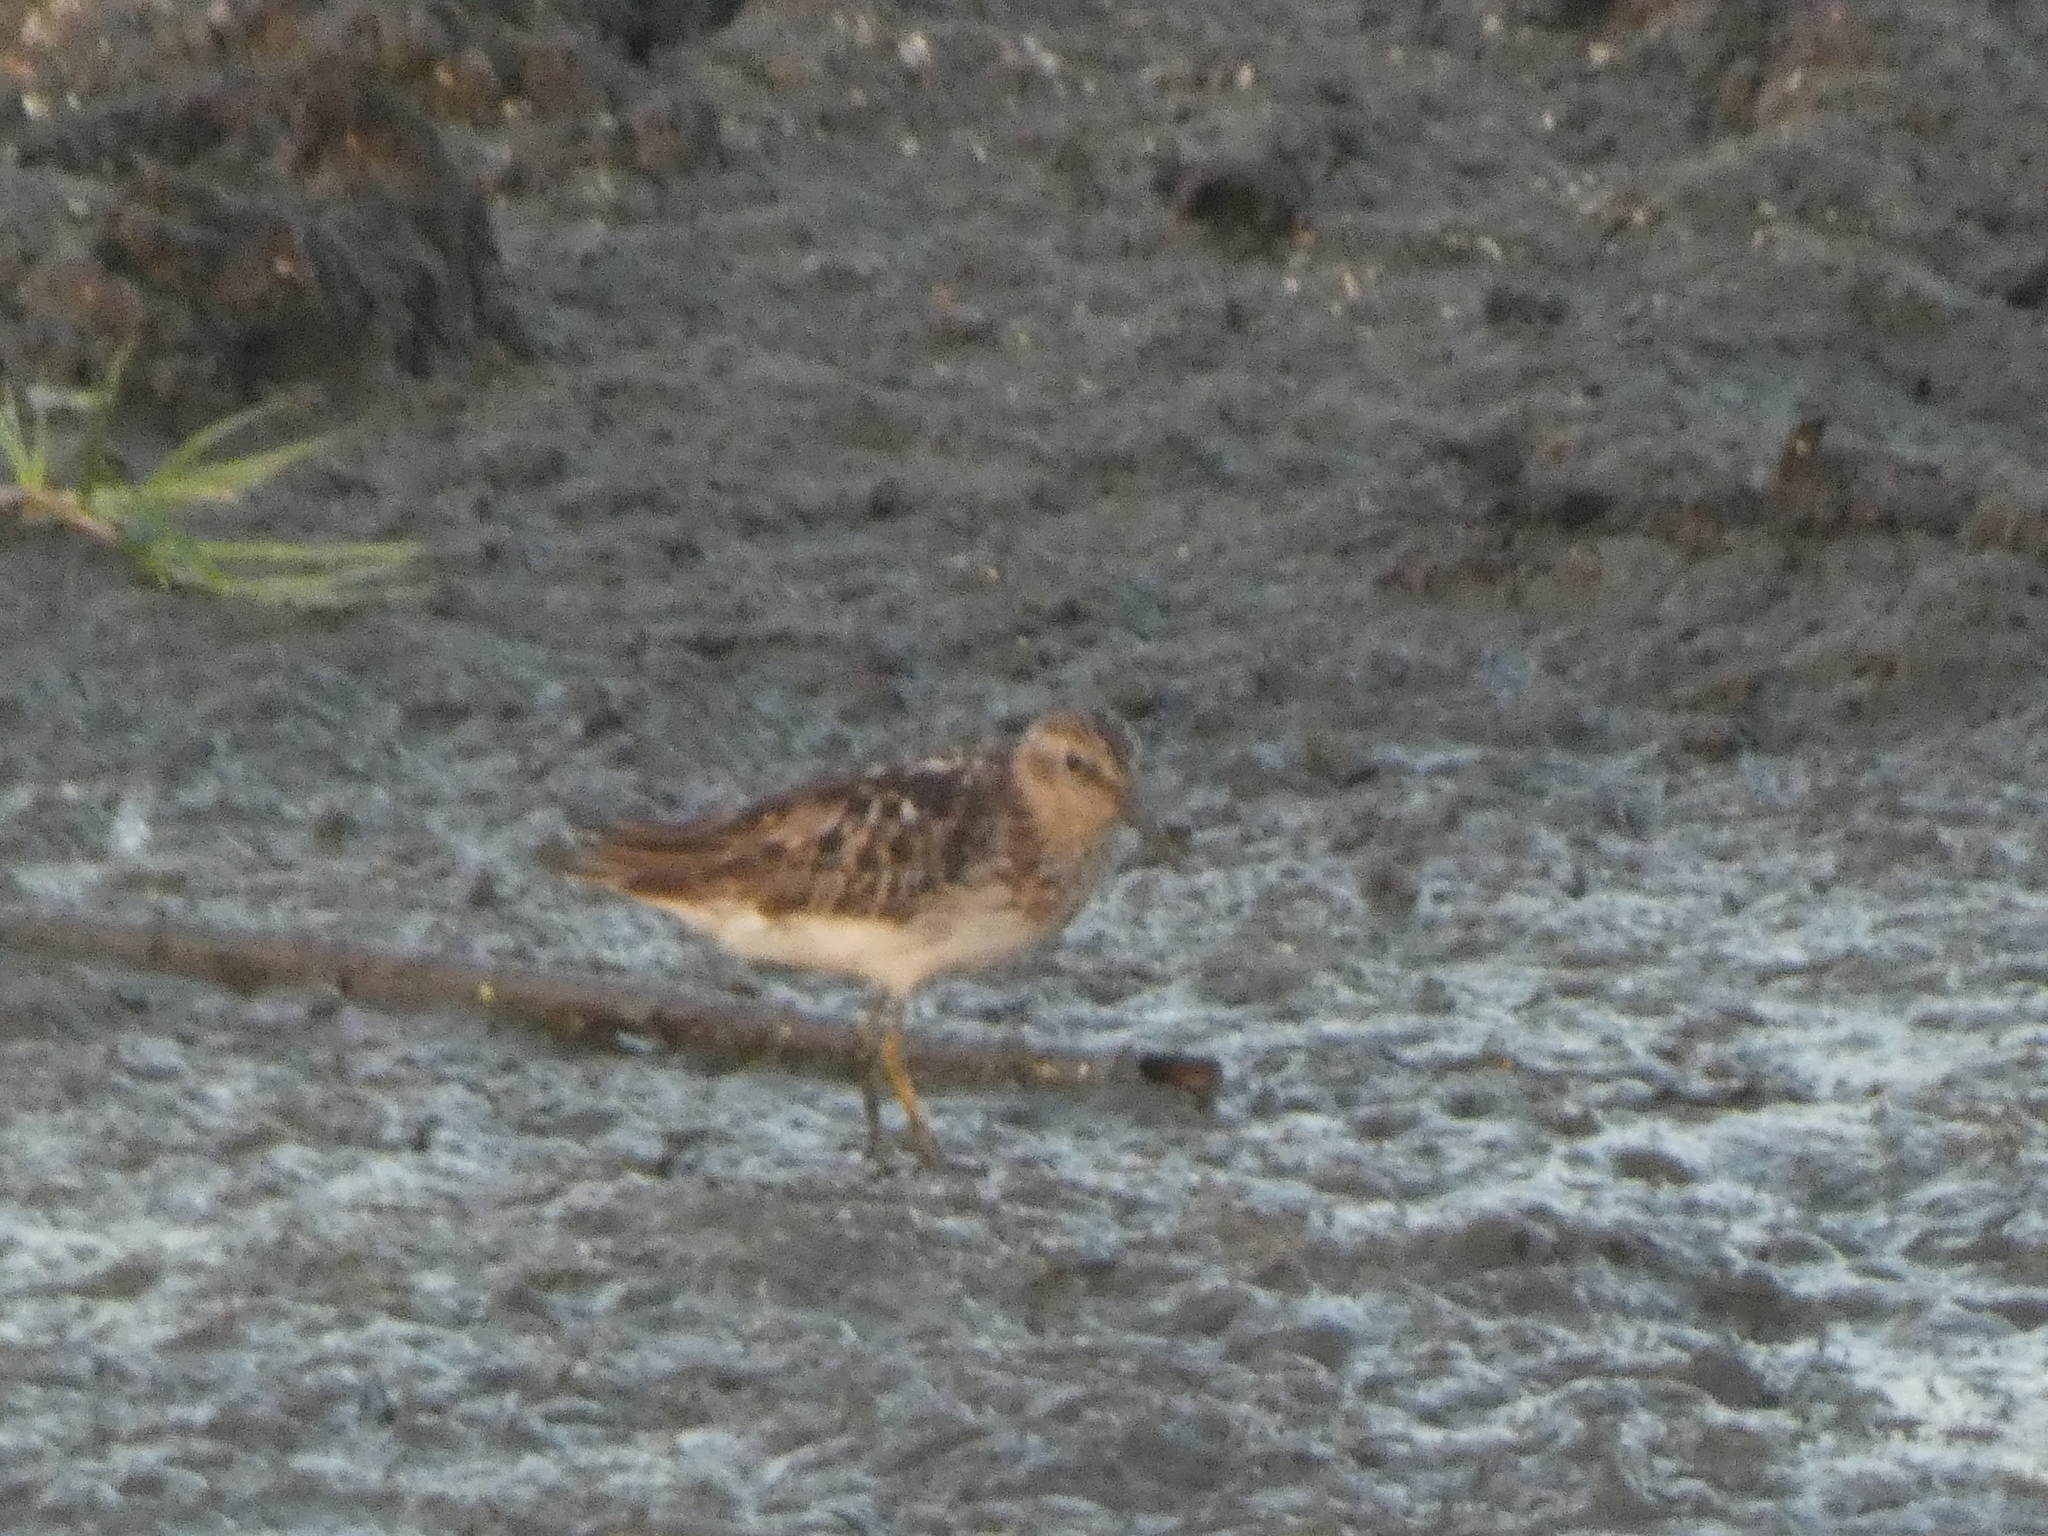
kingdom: Animalia
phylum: Chordata
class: Aves
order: Charadriiformes
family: Scolopacidae
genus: Calidris
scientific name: Calidris minutilla
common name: Least sandpiper
